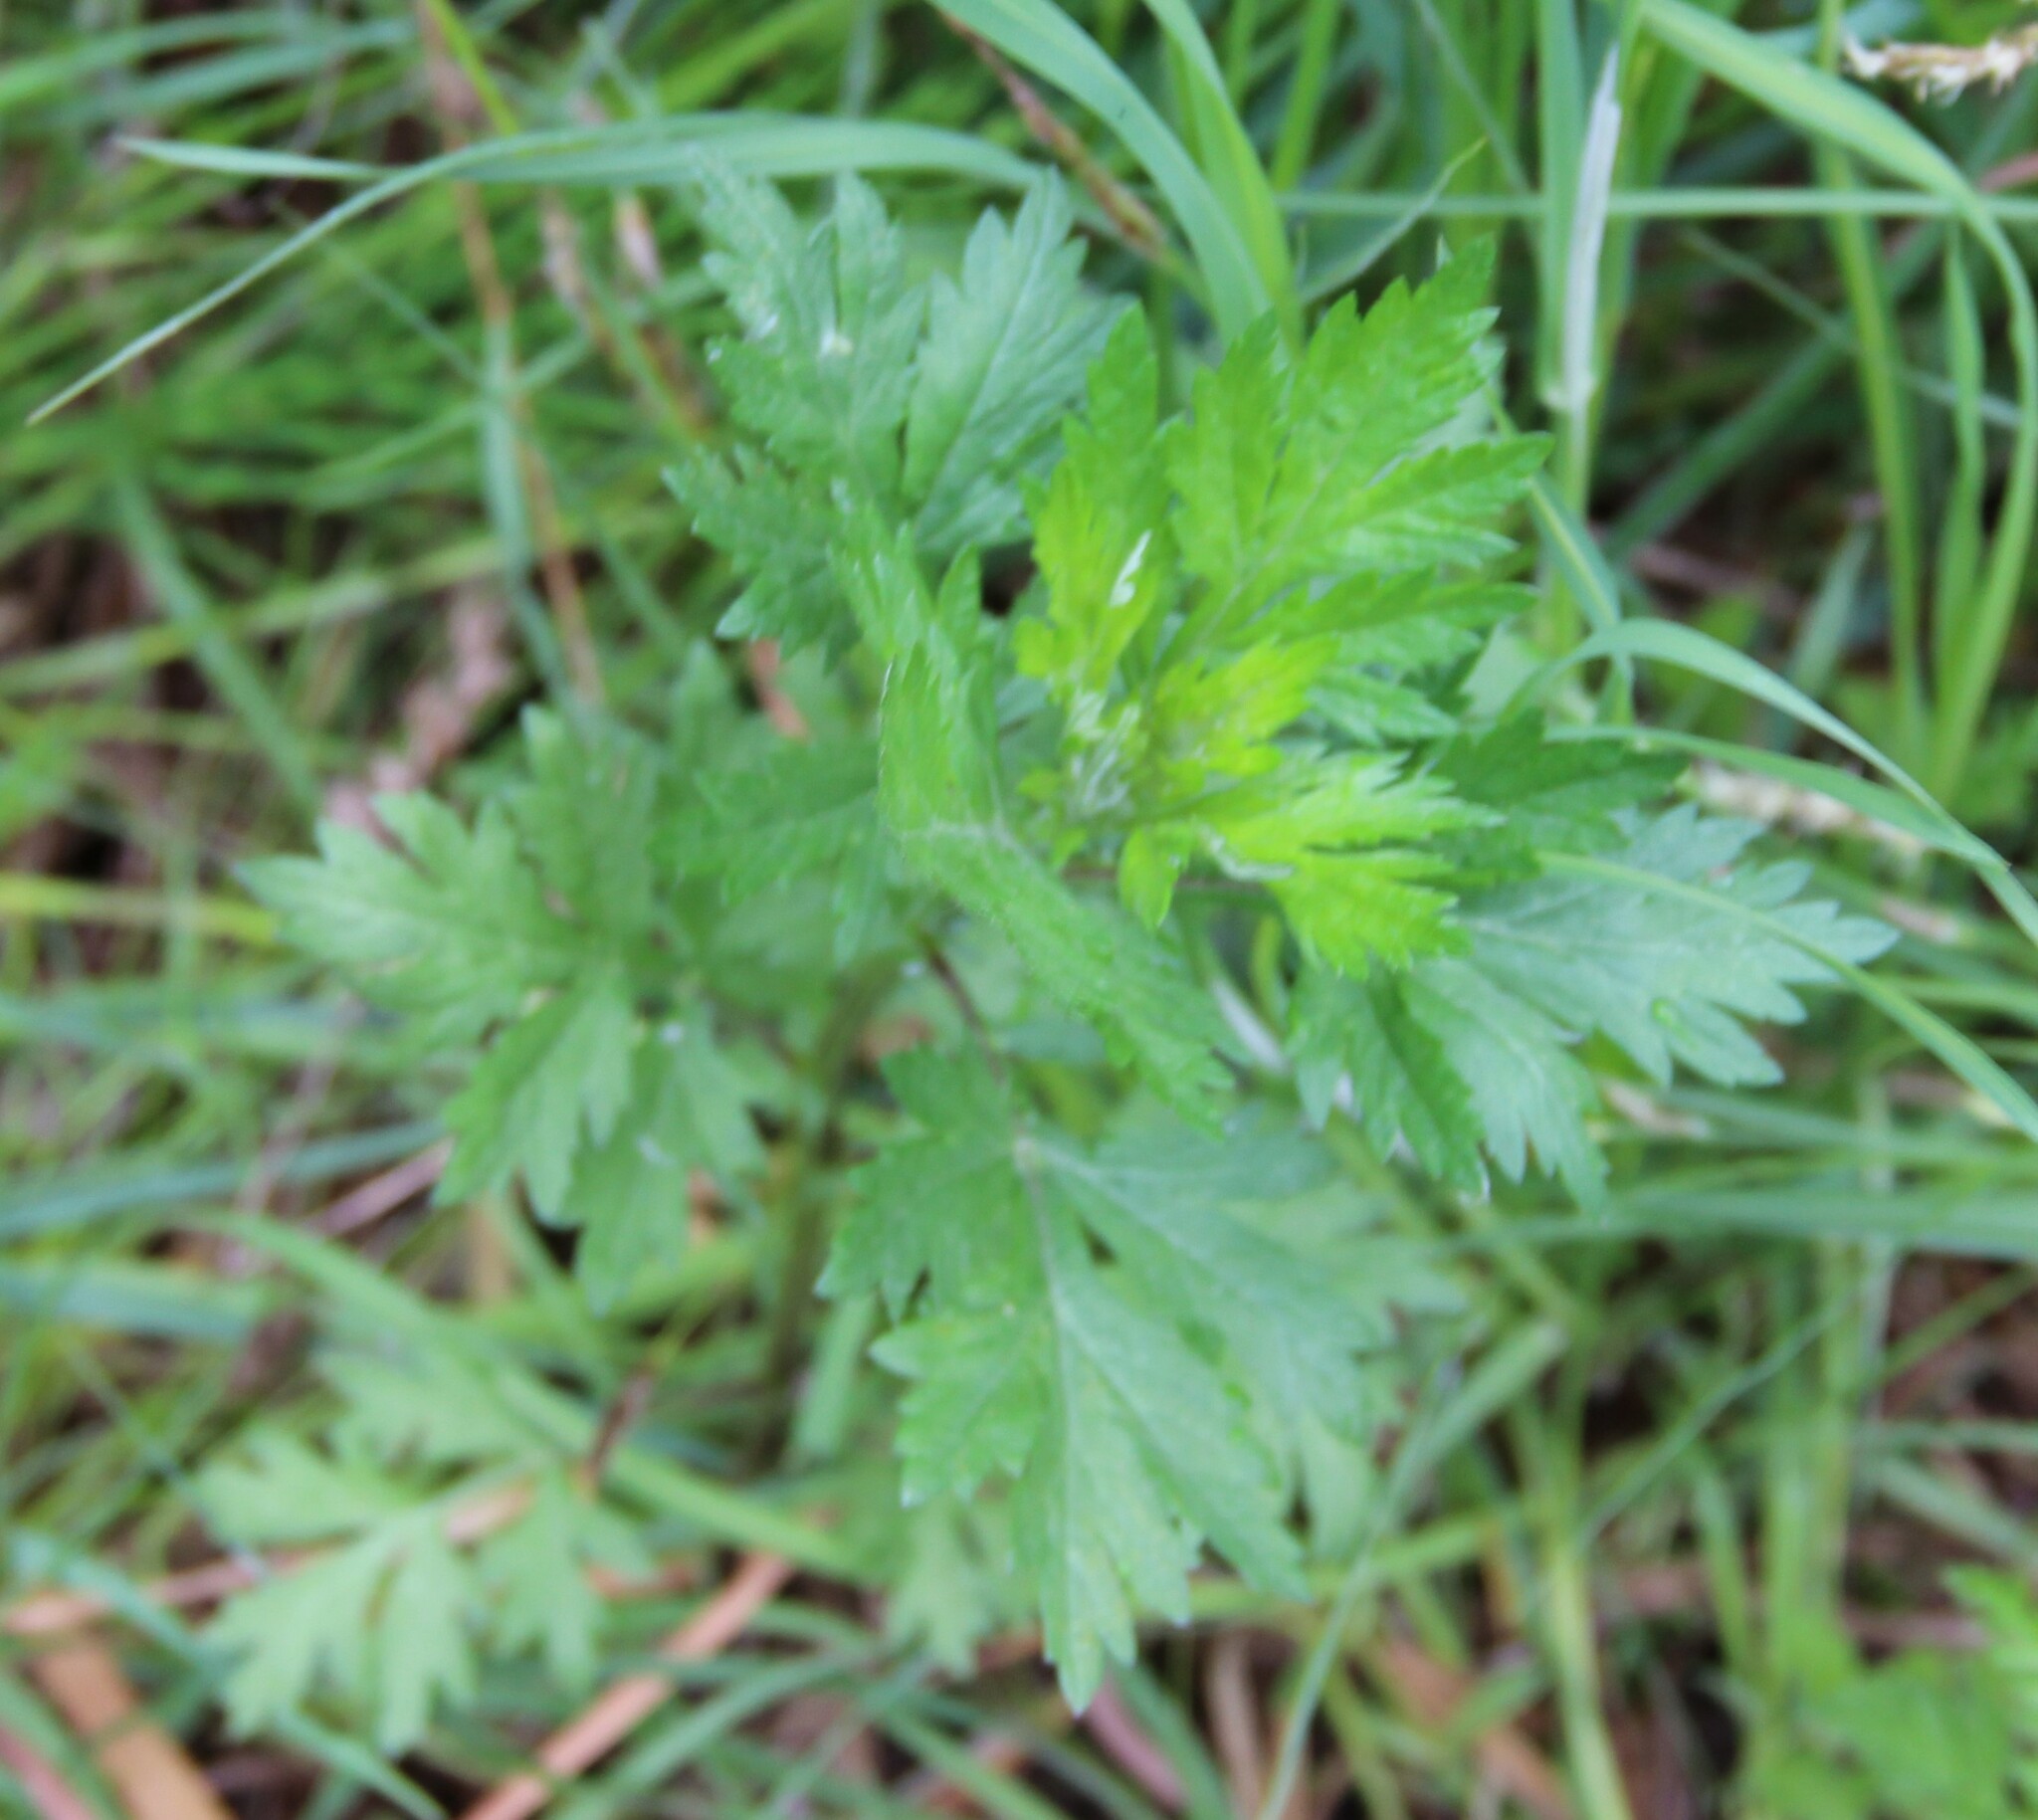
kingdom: Plantae
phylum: Tracheophyta
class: Magnoliopsida
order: Asterales
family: Asteraceae
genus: Artemisia
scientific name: Artemisia vulgaris
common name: Mugwort
